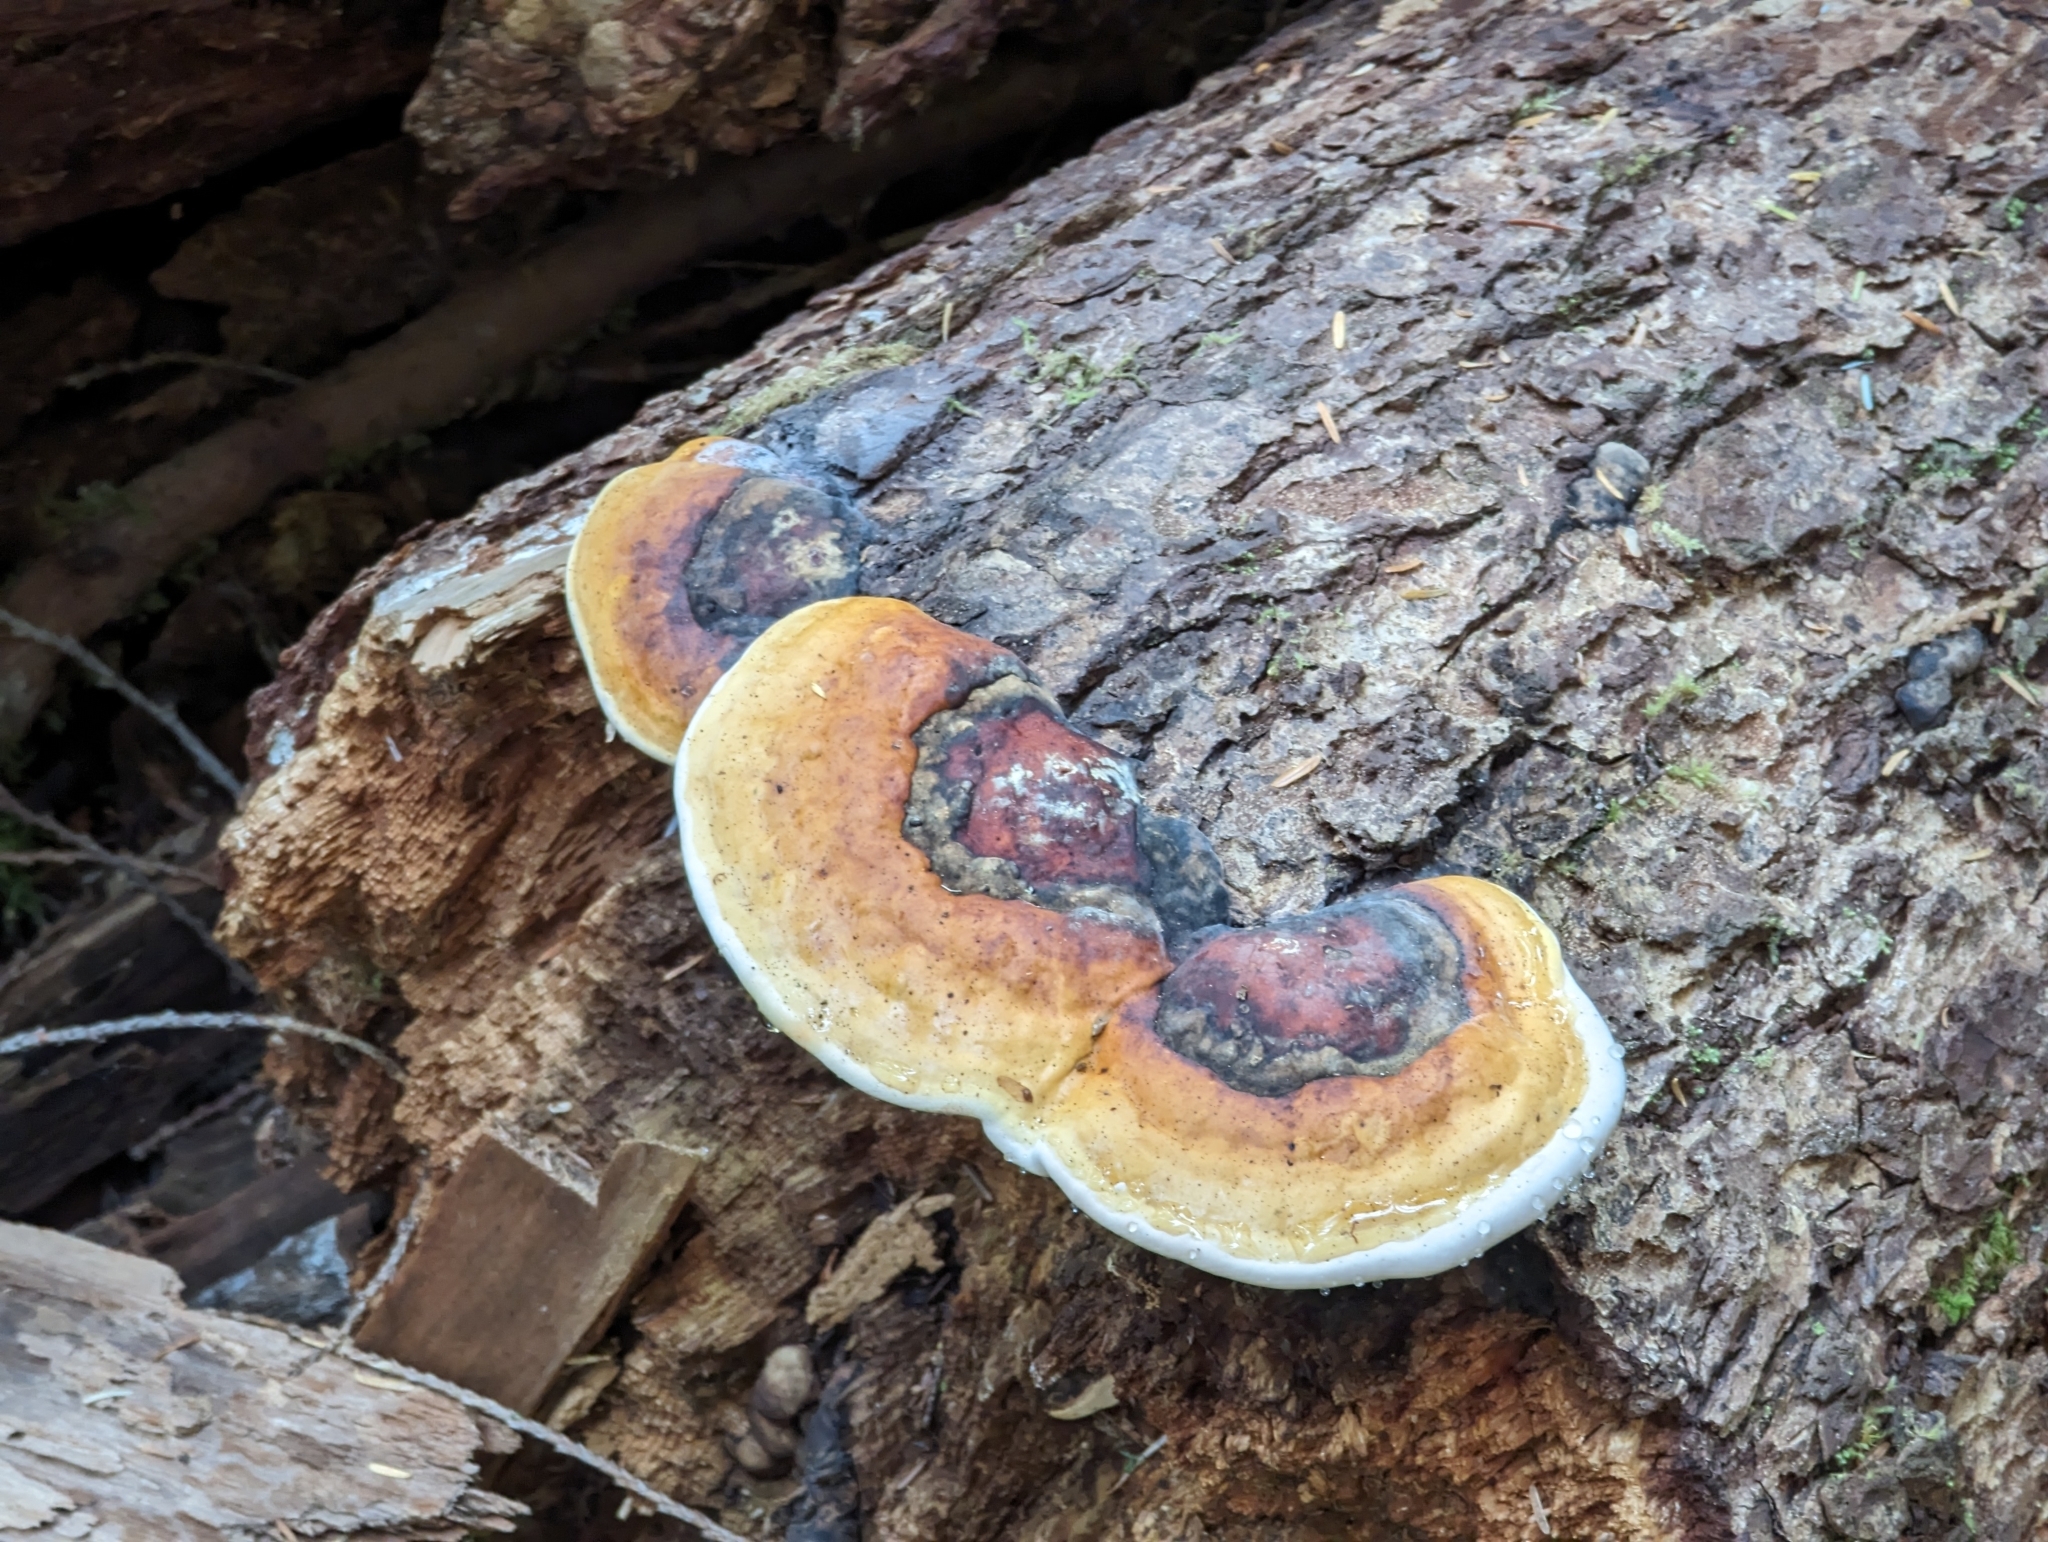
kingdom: Fungi
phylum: Basidiomycota
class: Agaricomycetes
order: Polyporales
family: Fomitopsidaceae
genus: Fomitopsis
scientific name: Fomitopsis mounceae
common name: Northern red belt
